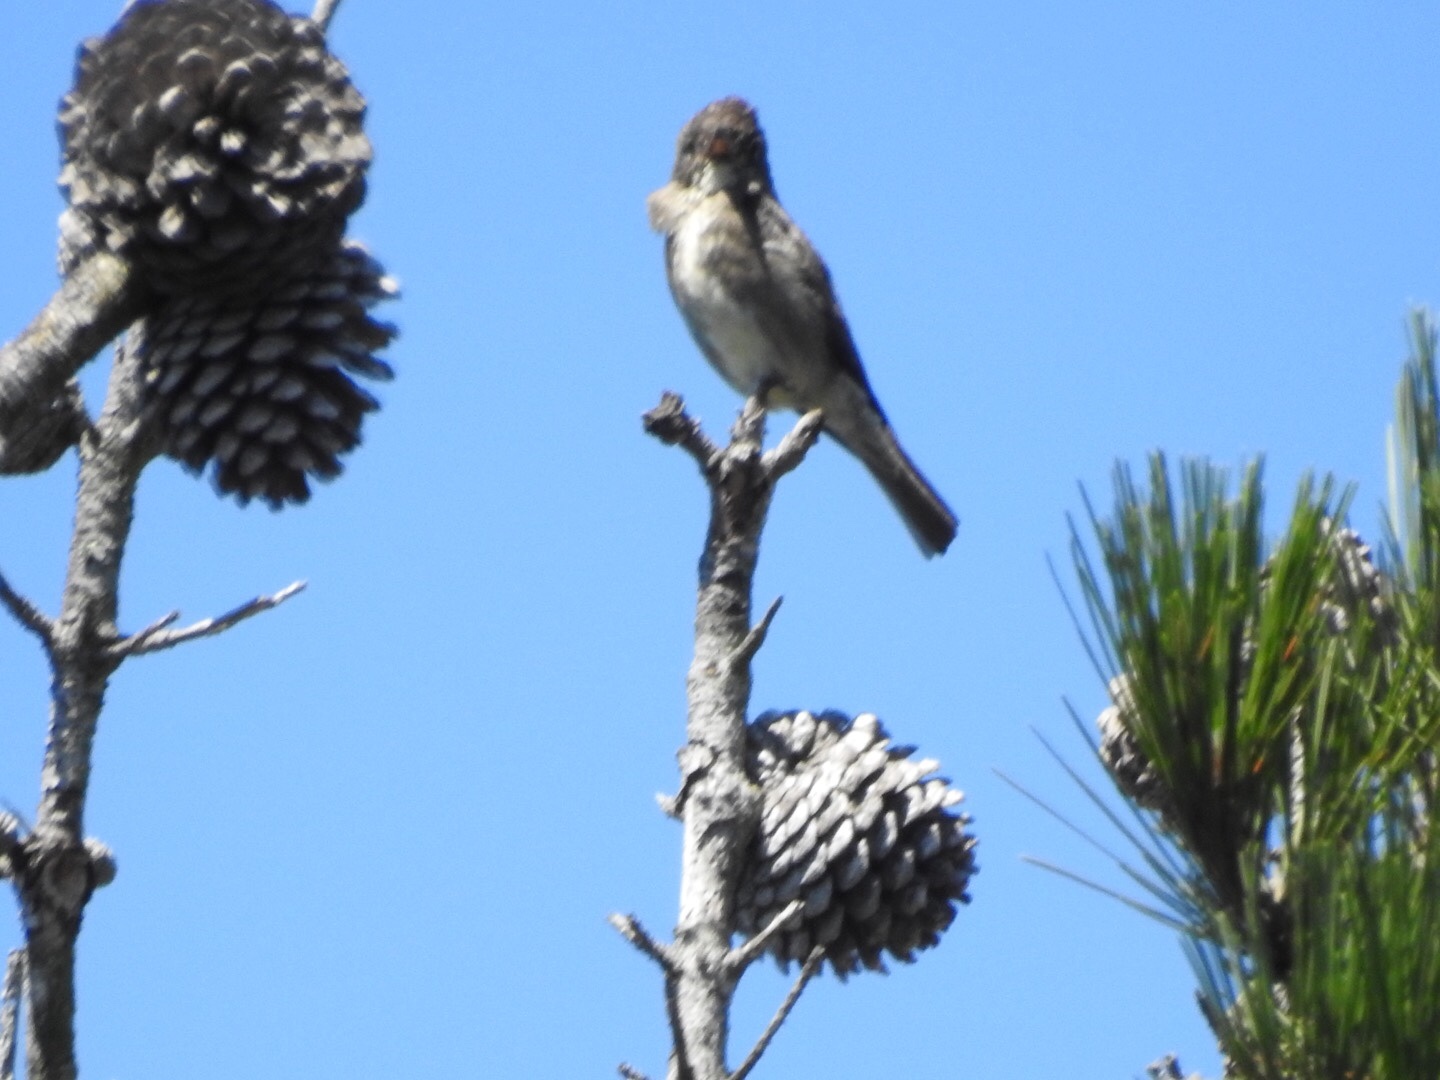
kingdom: Animalia
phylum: Chordata
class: Aves
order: Passeriformes
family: Tyrannidae
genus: Contopus
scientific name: Contopus cooperi
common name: Olive-sided flycatcher
